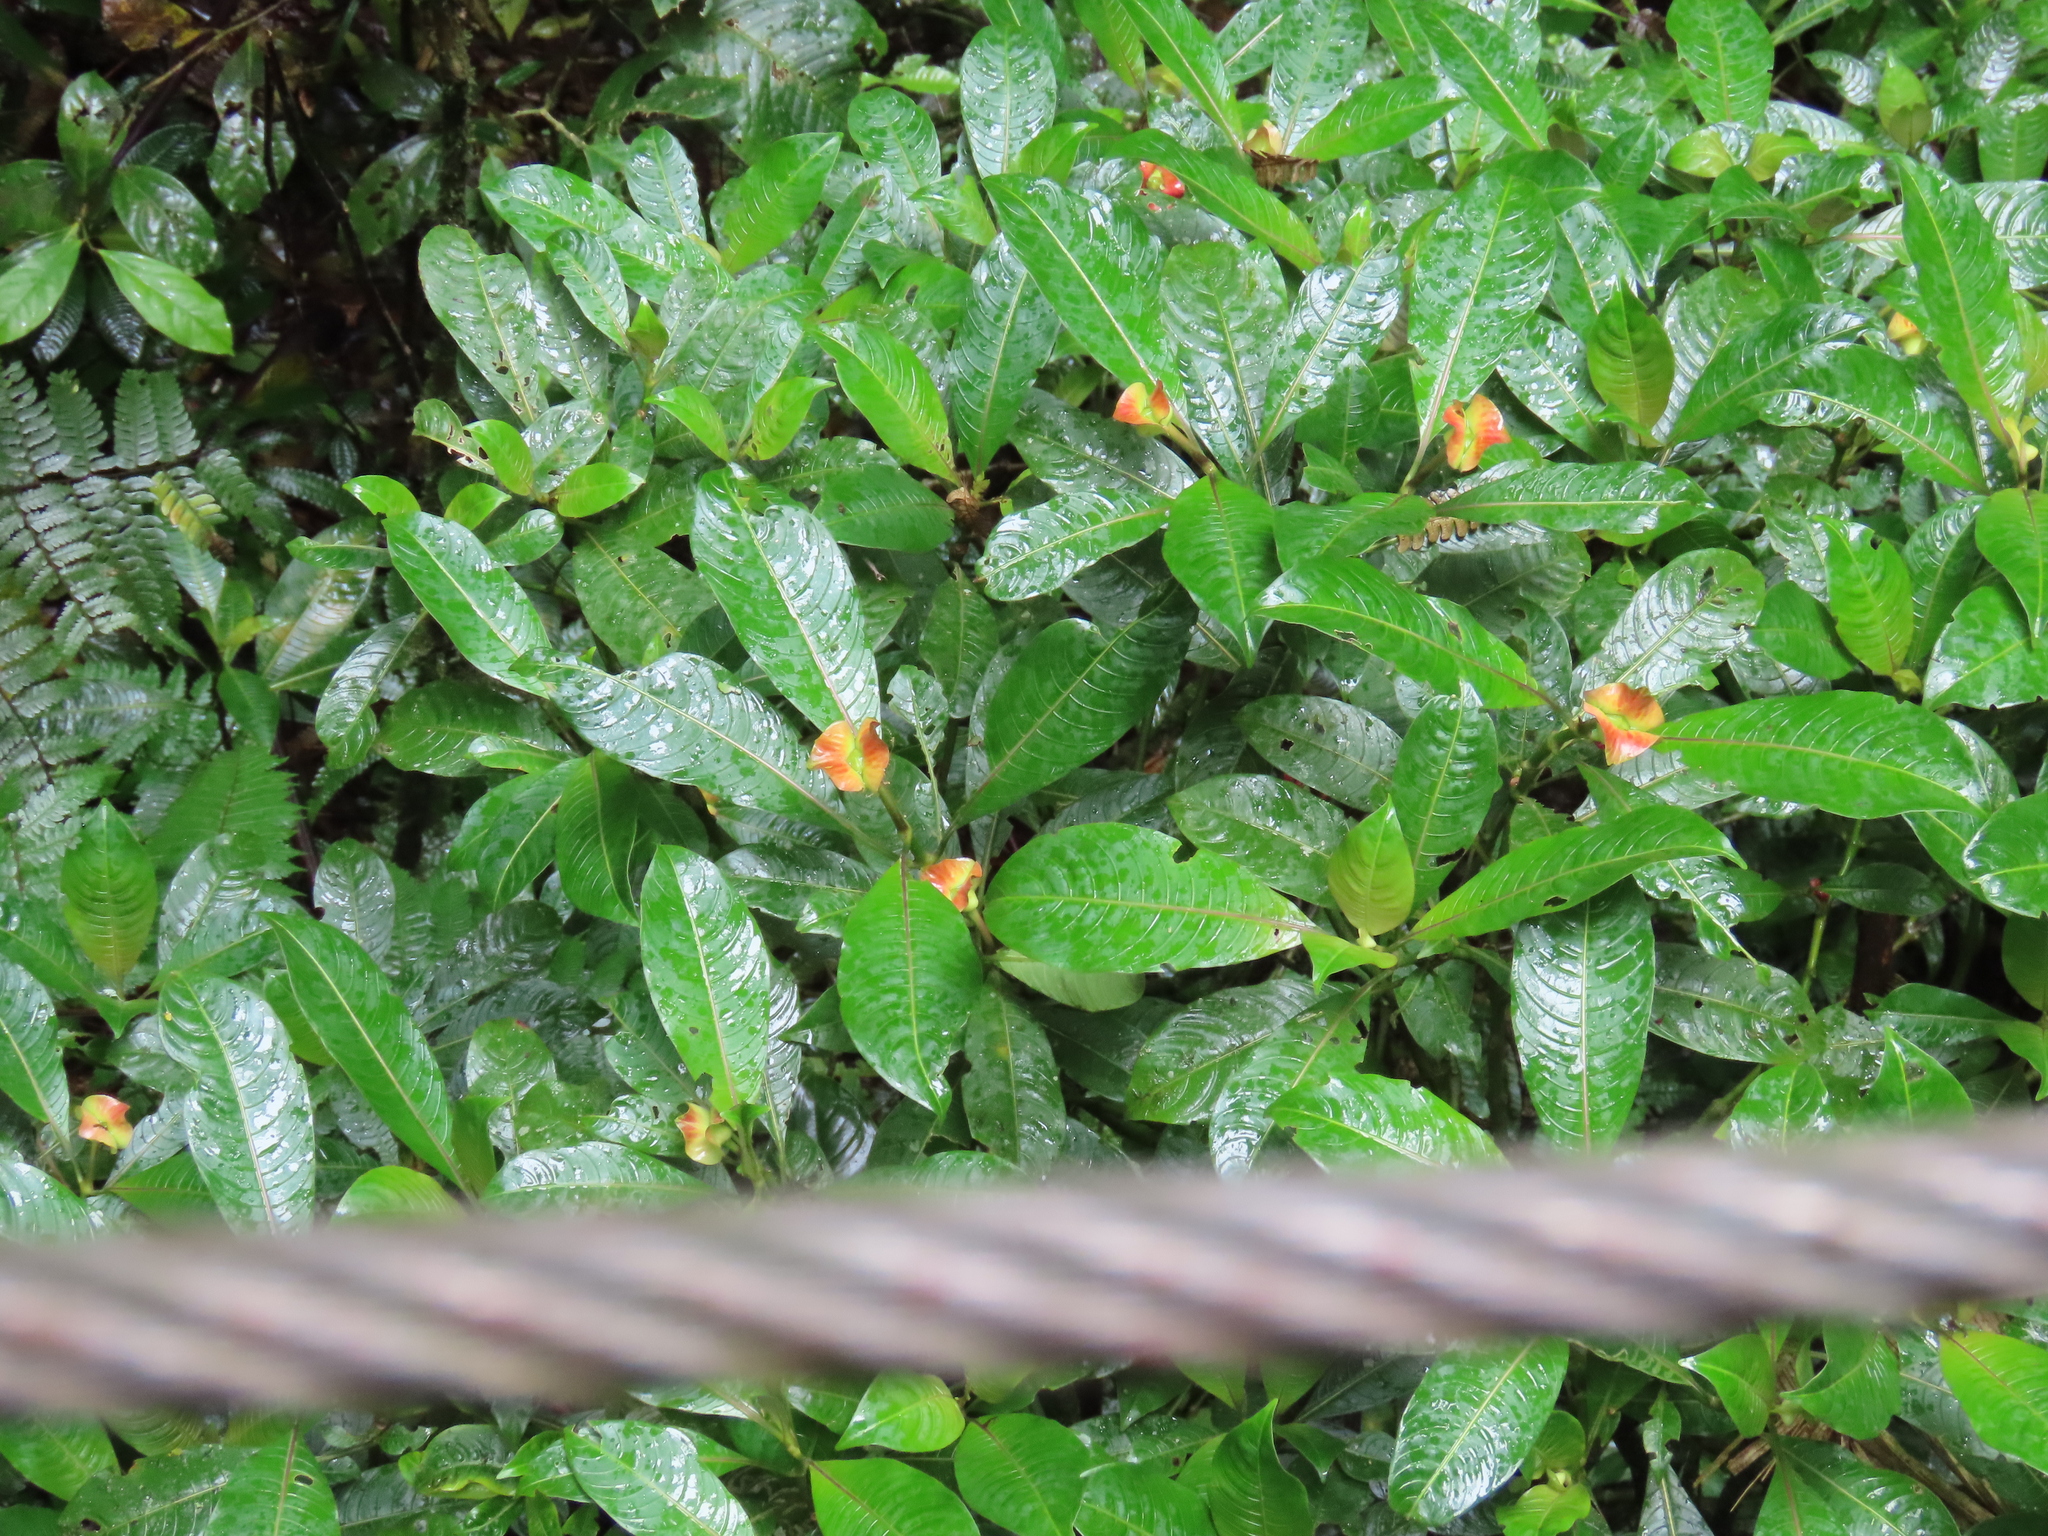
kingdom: Plantae
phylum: Tracheophyta
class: Magnoliopsida
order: Gentianales
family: Rubiaceae
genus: Palicourea
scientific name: Palicourea elata
